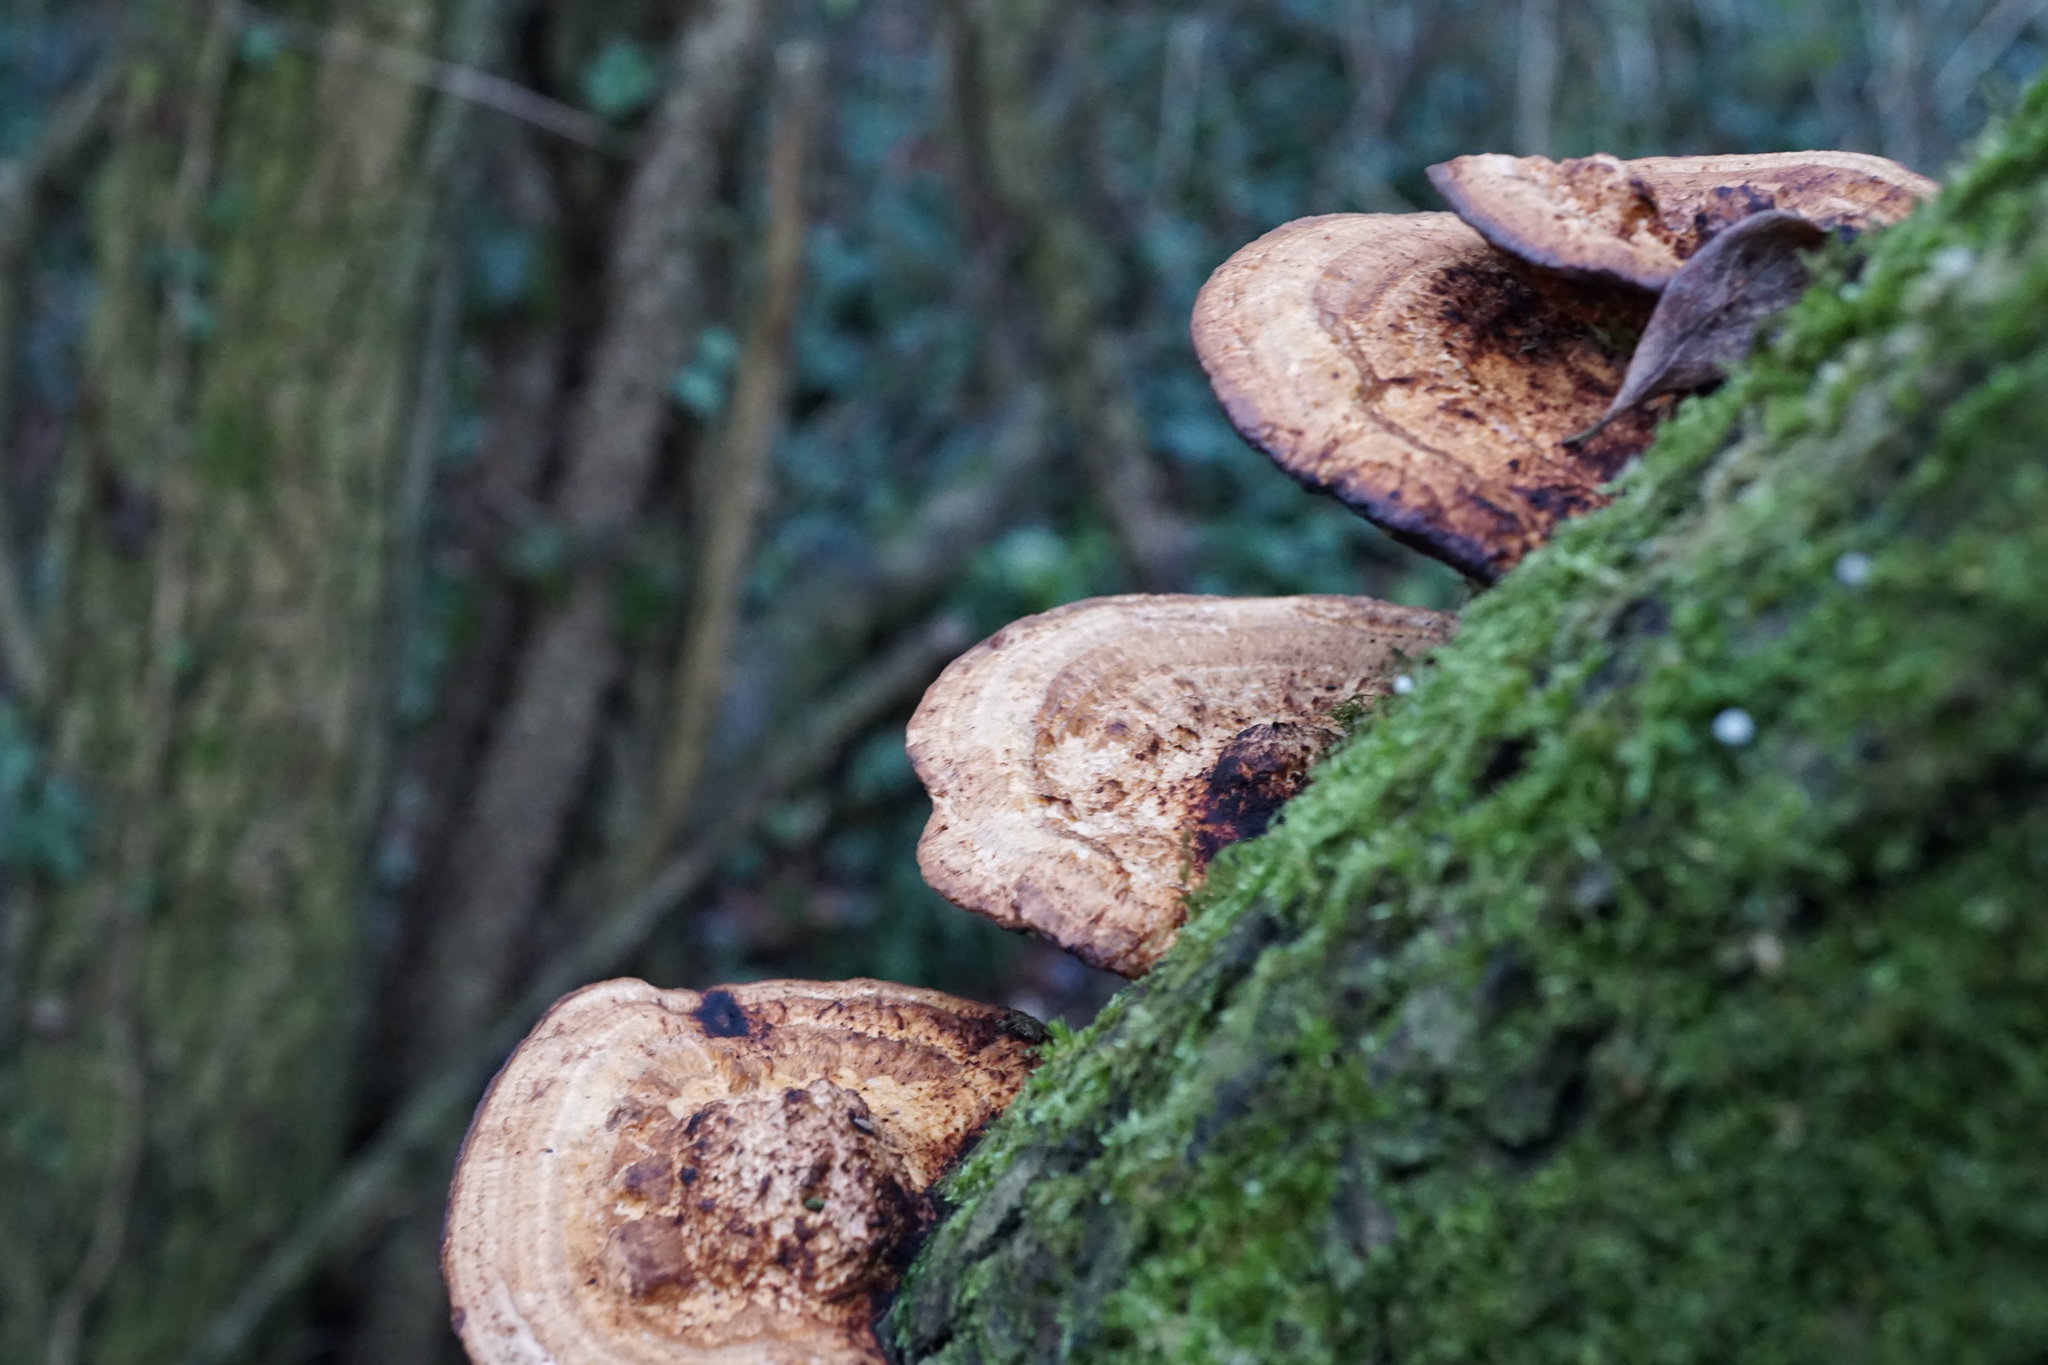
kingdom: Fungi
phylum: Basidiomycota
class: Agaricomycetes
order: Polyporales
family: Polyporaceae
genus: Daedaleopsis
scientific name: Daedaleopsis confragosa
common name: Blushing bracket
